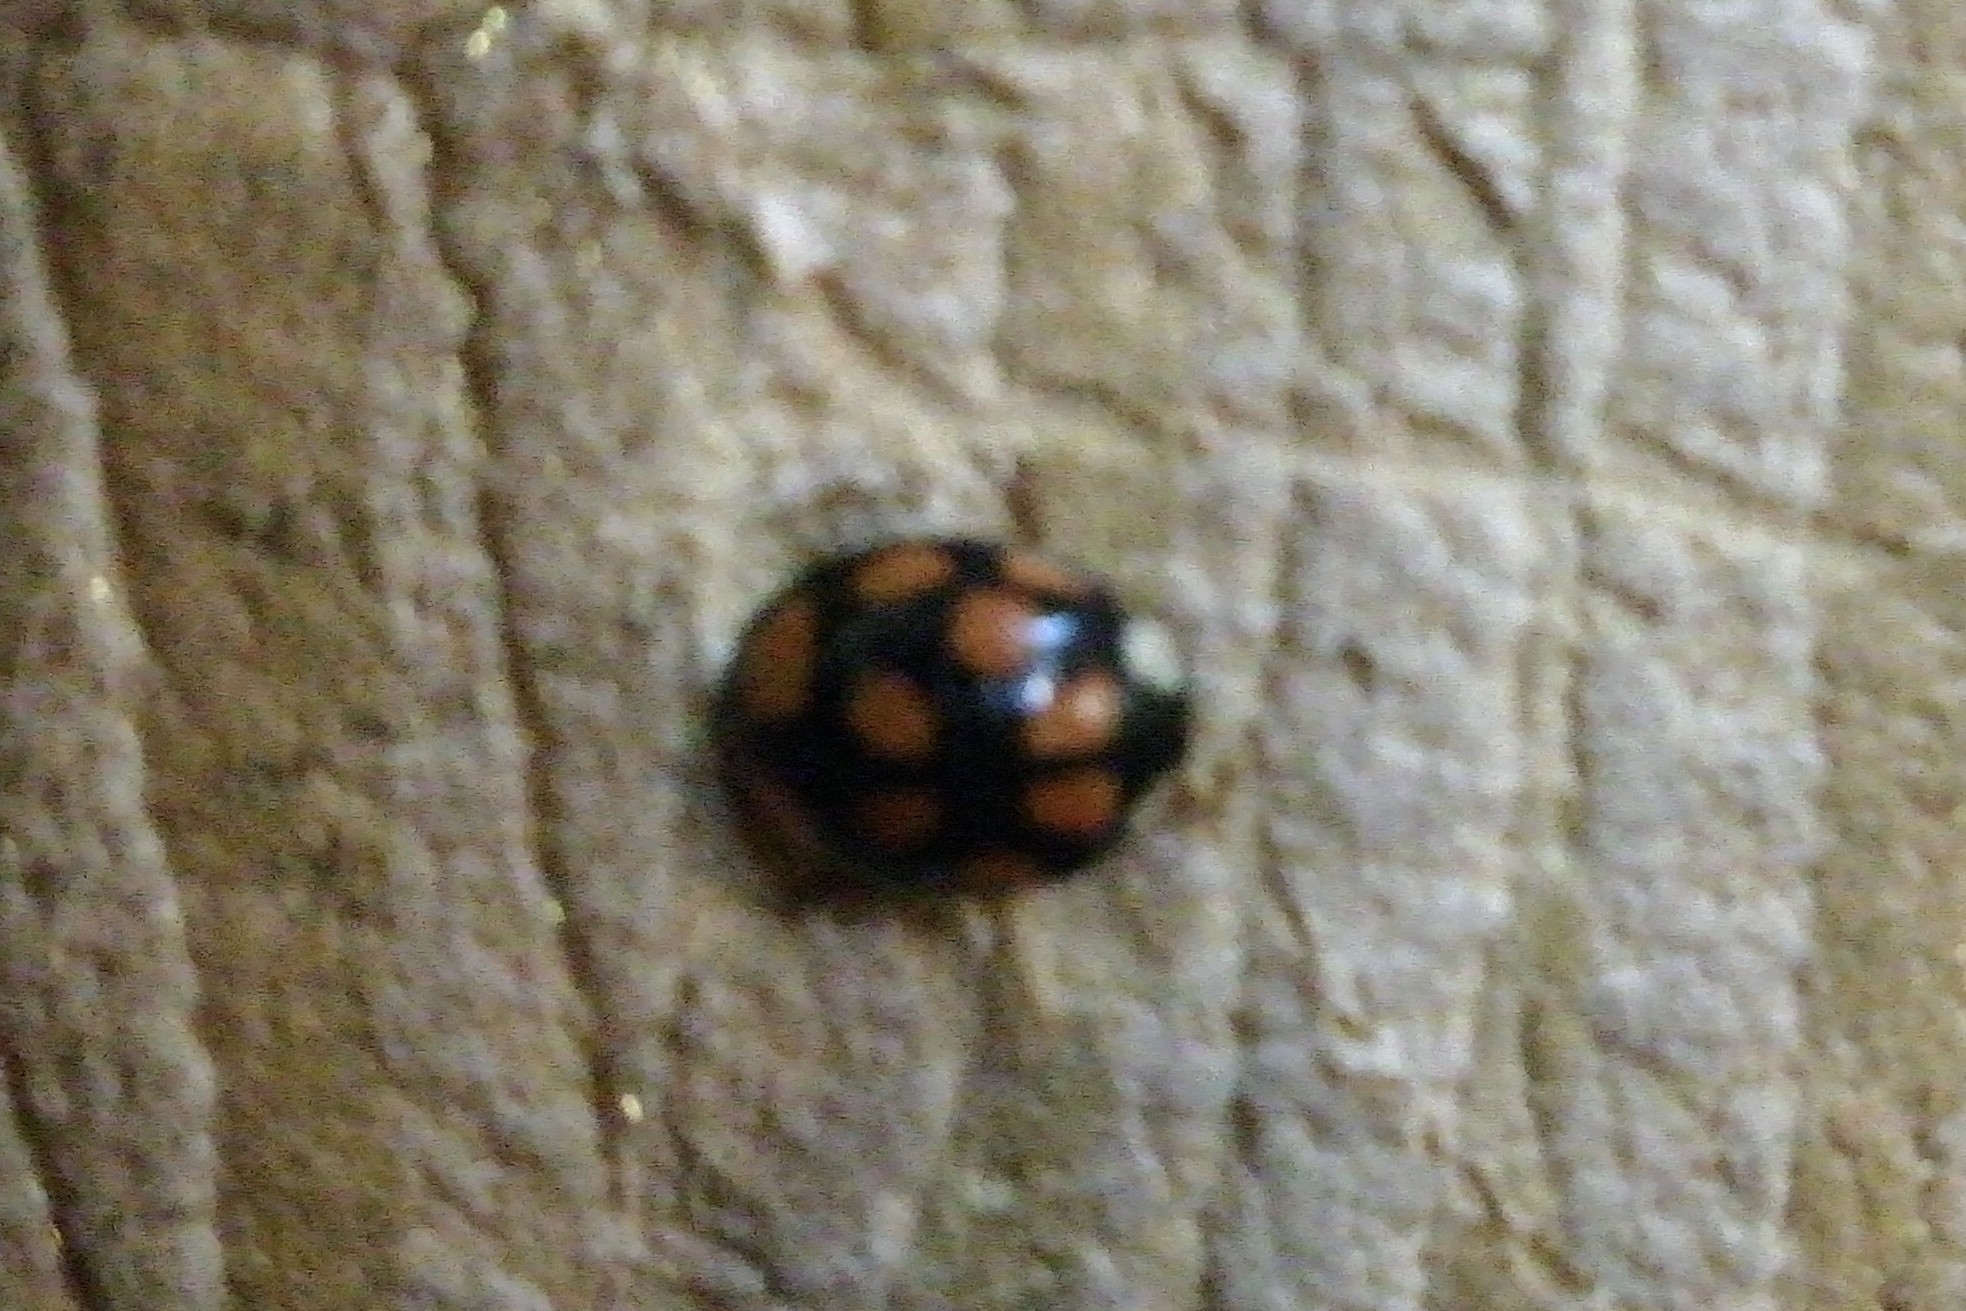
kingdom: Animalia
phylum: Arthropoda
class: Insecta
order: Coleoptera
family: Coccinellidae
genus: Harmonia
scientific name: Harmonia axyridis
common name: Harlequin ladybird
